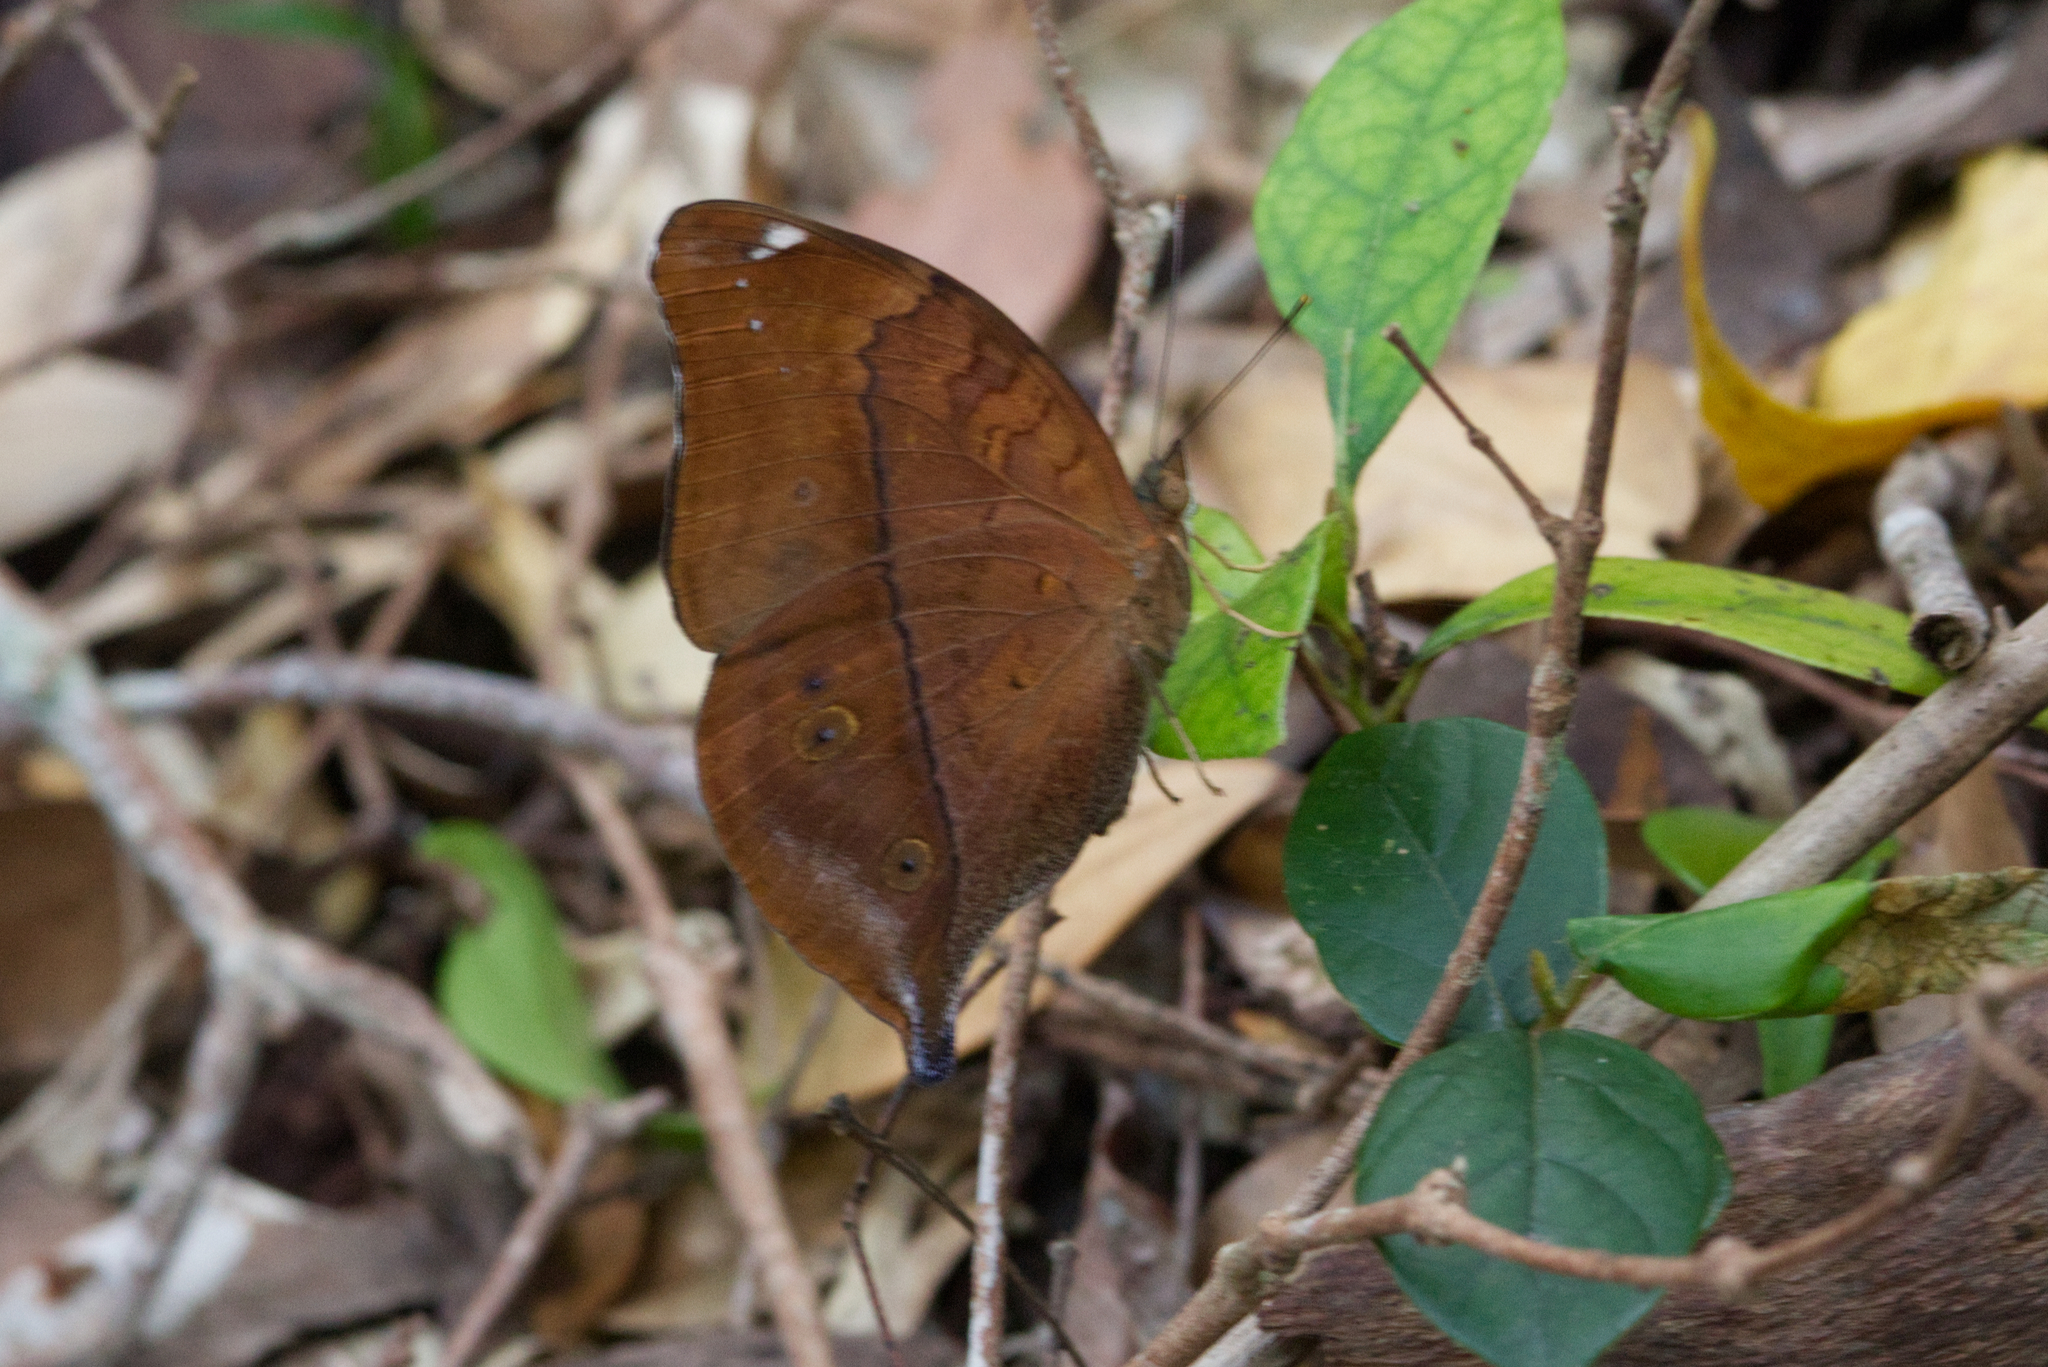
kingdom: Animalia
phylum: Arthropoda
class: Insecta
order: Lepidoptera
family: Nymphalidae
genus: Doleschallia
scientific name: Doleschallia bisaltide
